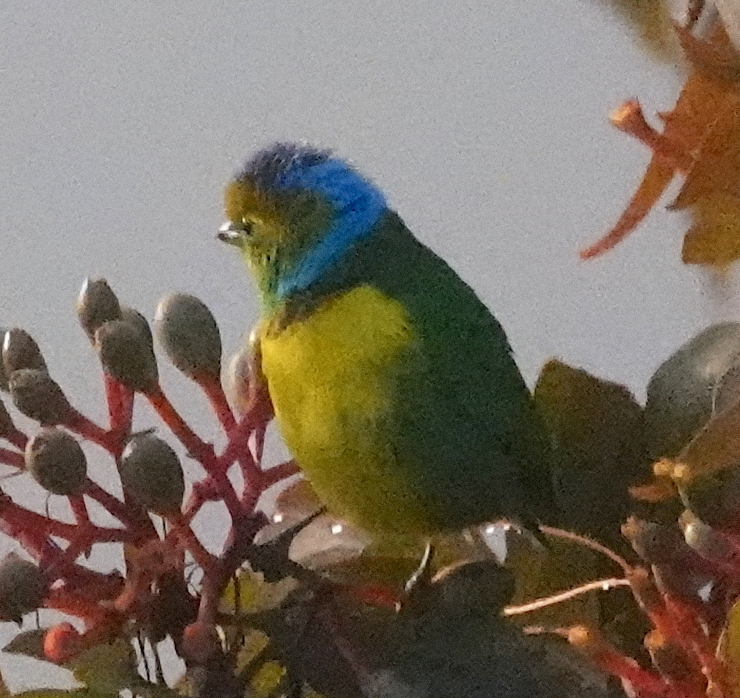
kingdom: Animalia
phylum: Chordata
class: Aves
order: Passeriformes
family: Fringillidae
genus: Chlorophonia
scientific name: Chlorophonia callophrys
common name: Golden-browed chlorophonia
